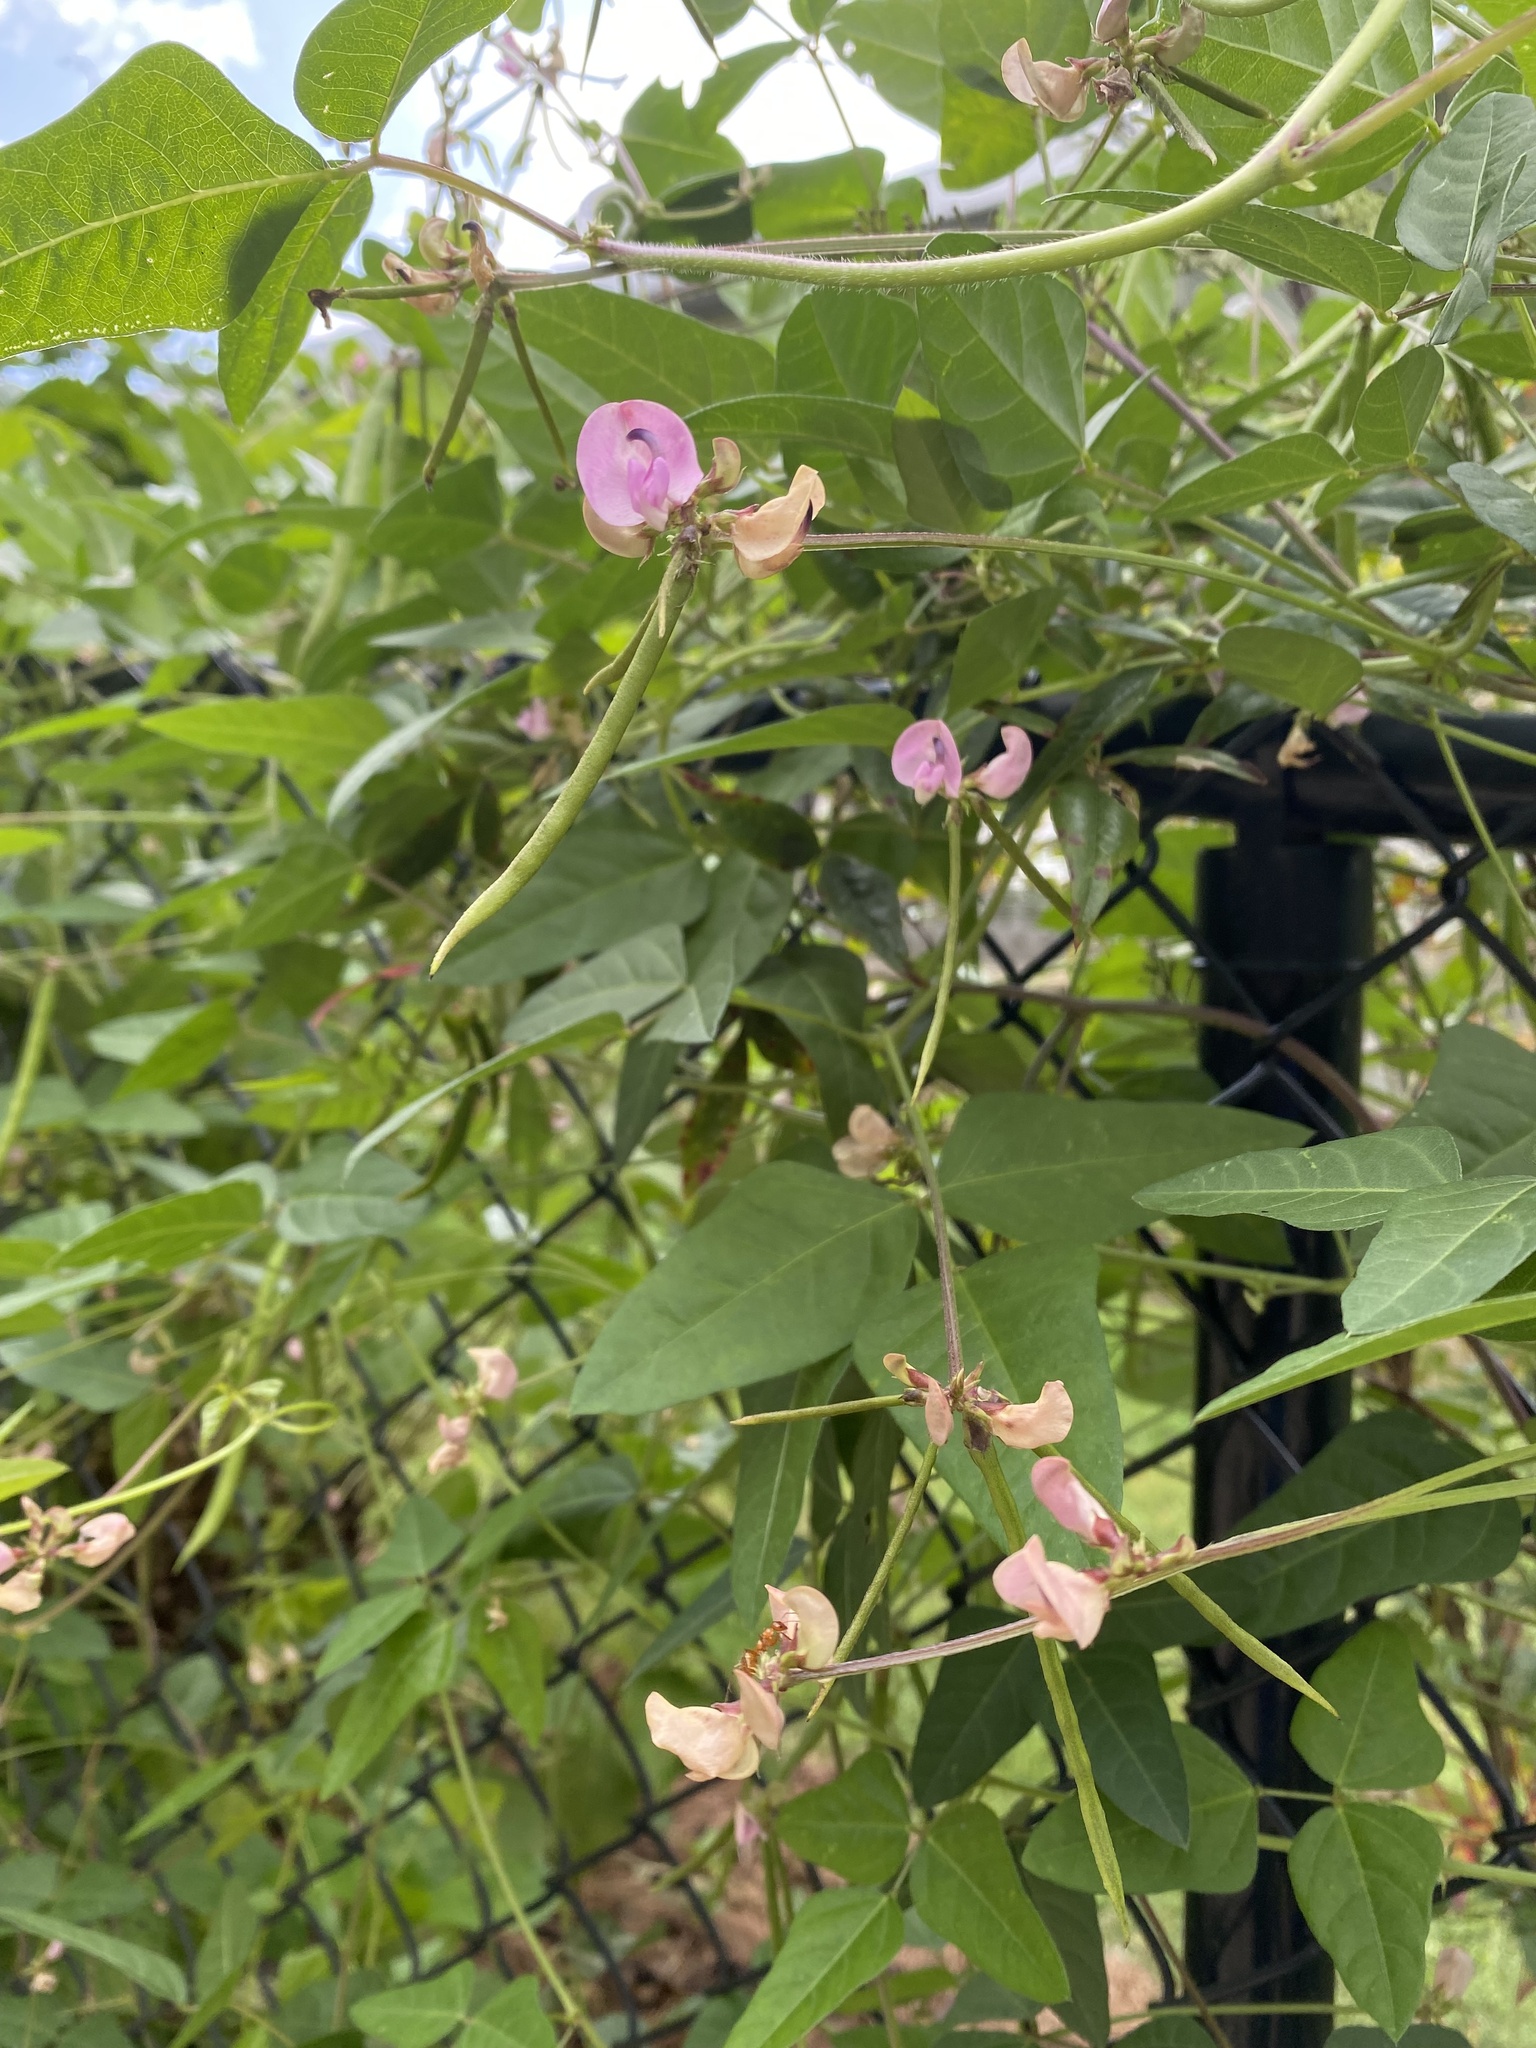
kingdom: Plantae
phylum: Tracheophyta
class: Magnoliopsida
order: Fabales
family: Fabaceae
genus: Strophostyles
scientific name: Strophostyles helvola
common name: Trailing wild bean
